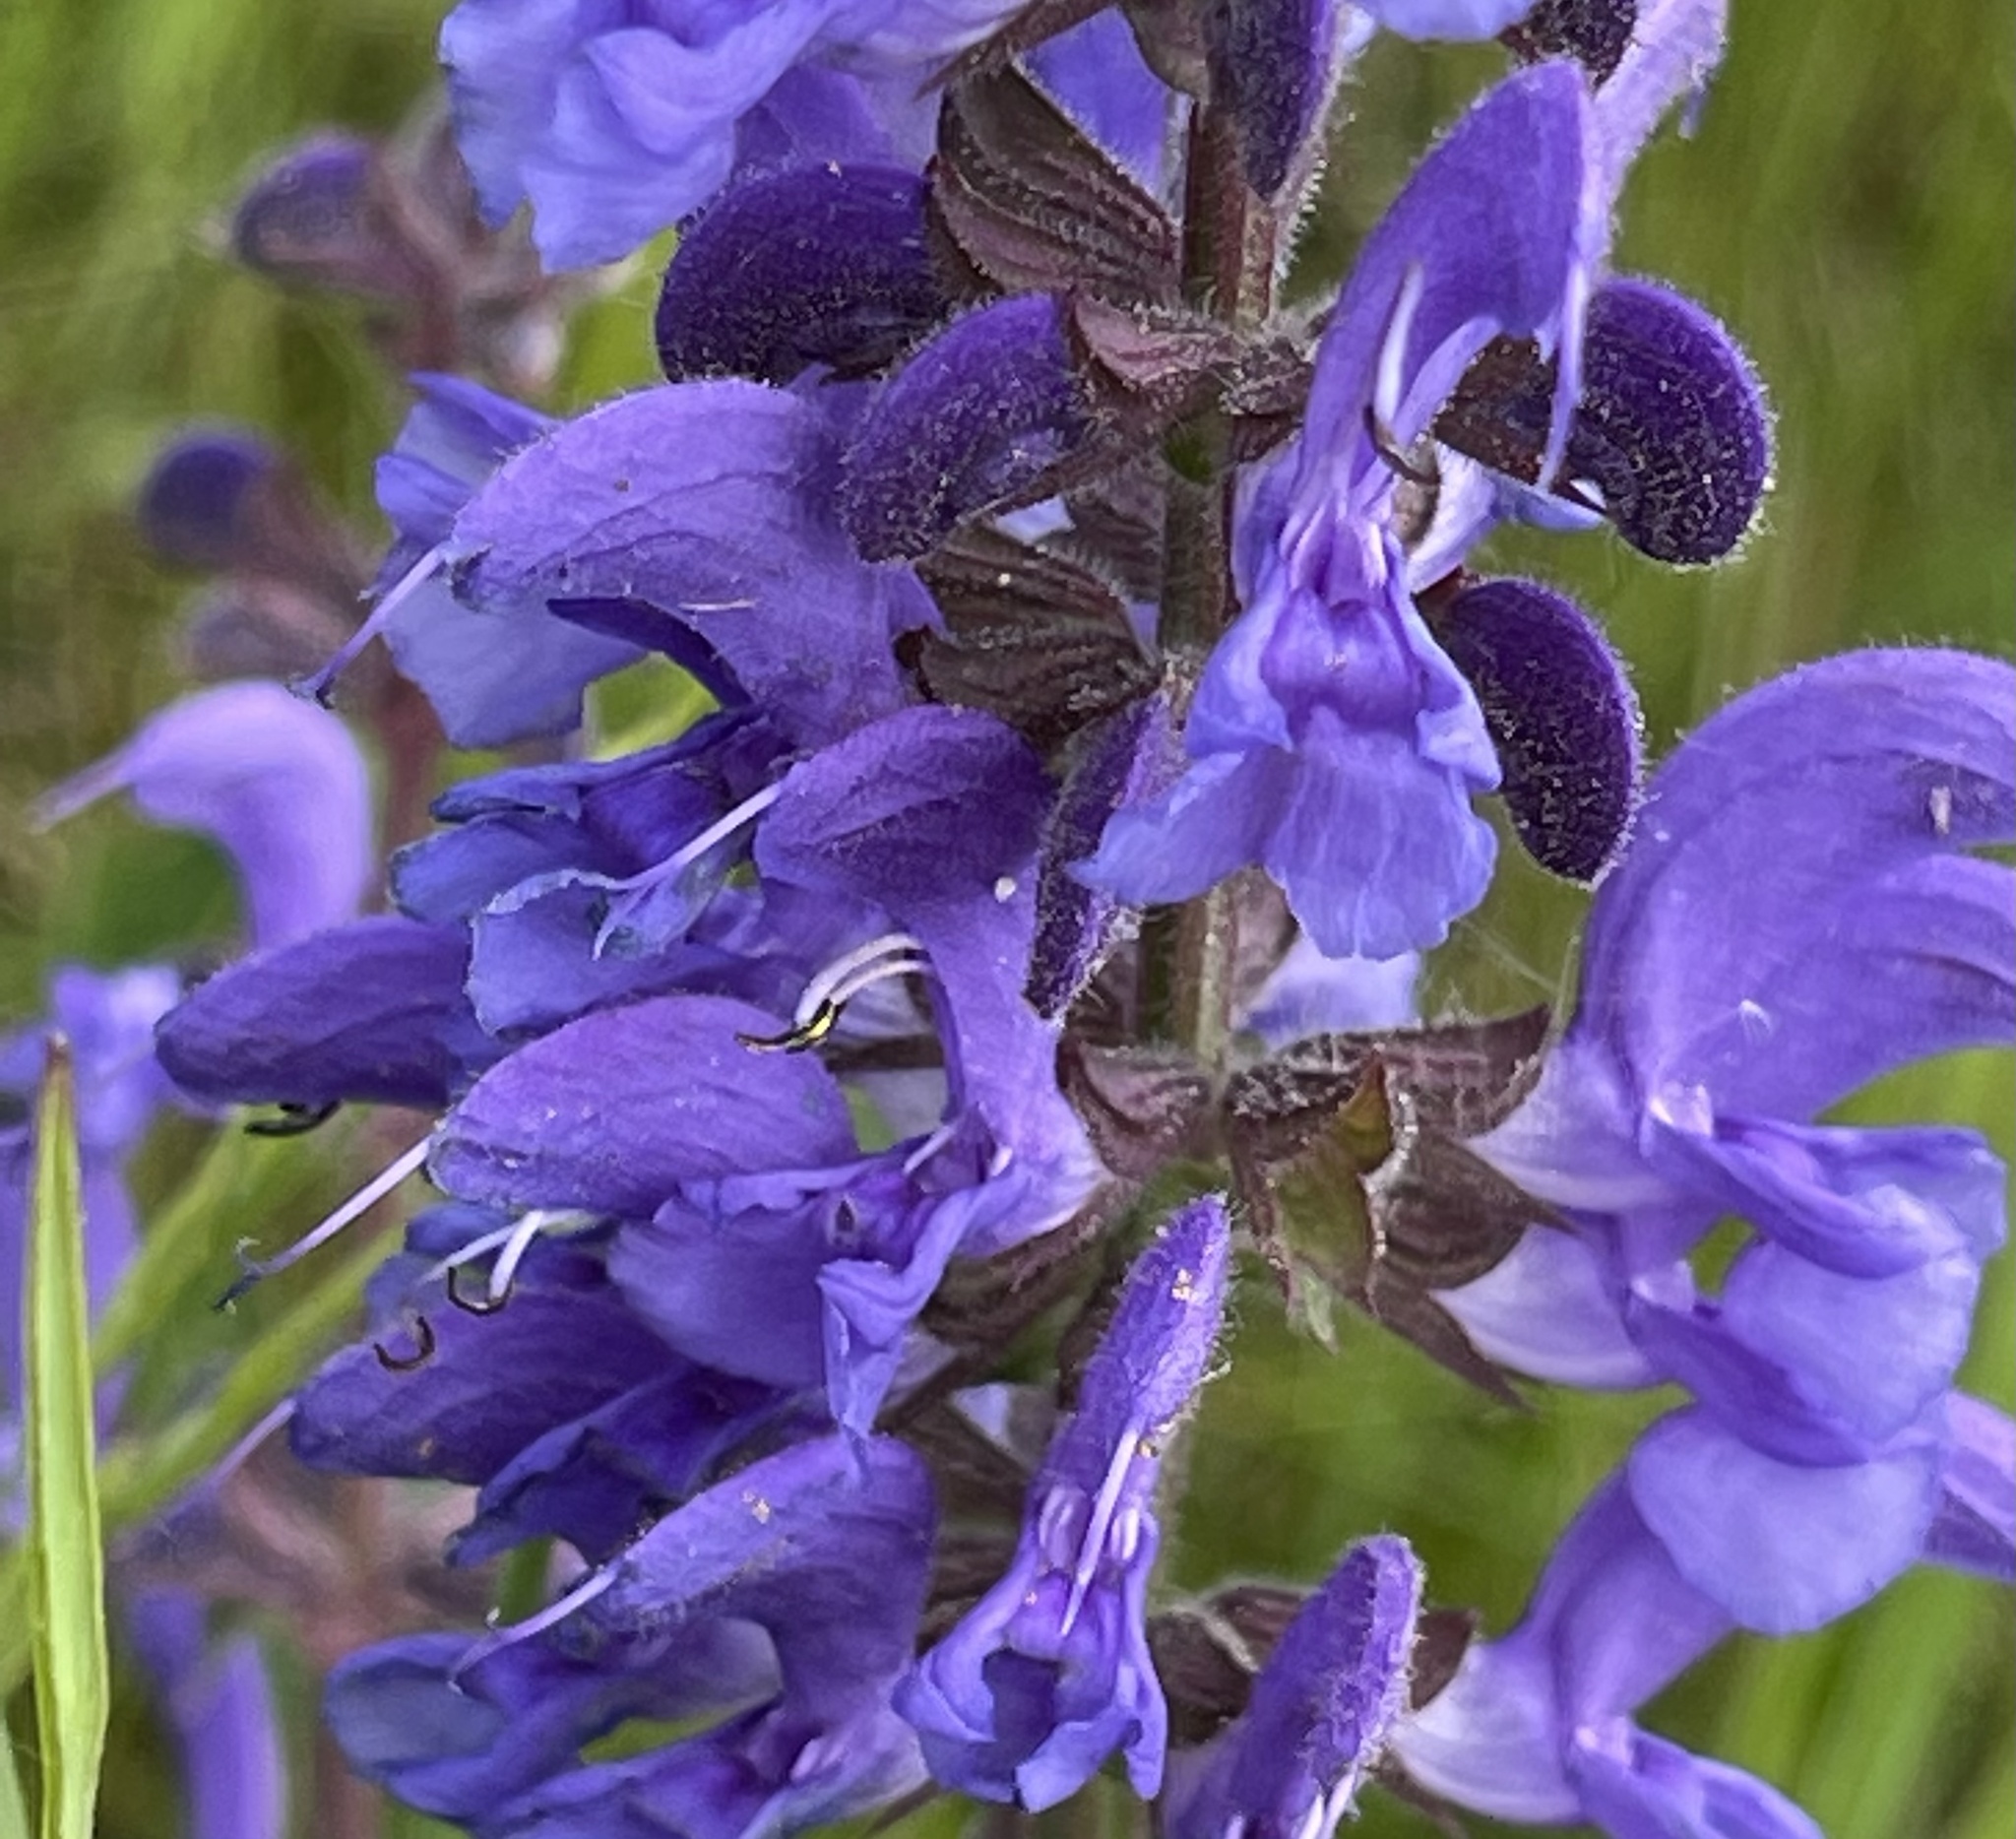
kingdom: Plantae
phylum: Tracheophyta
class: Magnoliopsida
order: Lamiales
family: Lamiaceae
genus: Salvia
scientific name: Salvia pratensis
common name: Meadow sage
